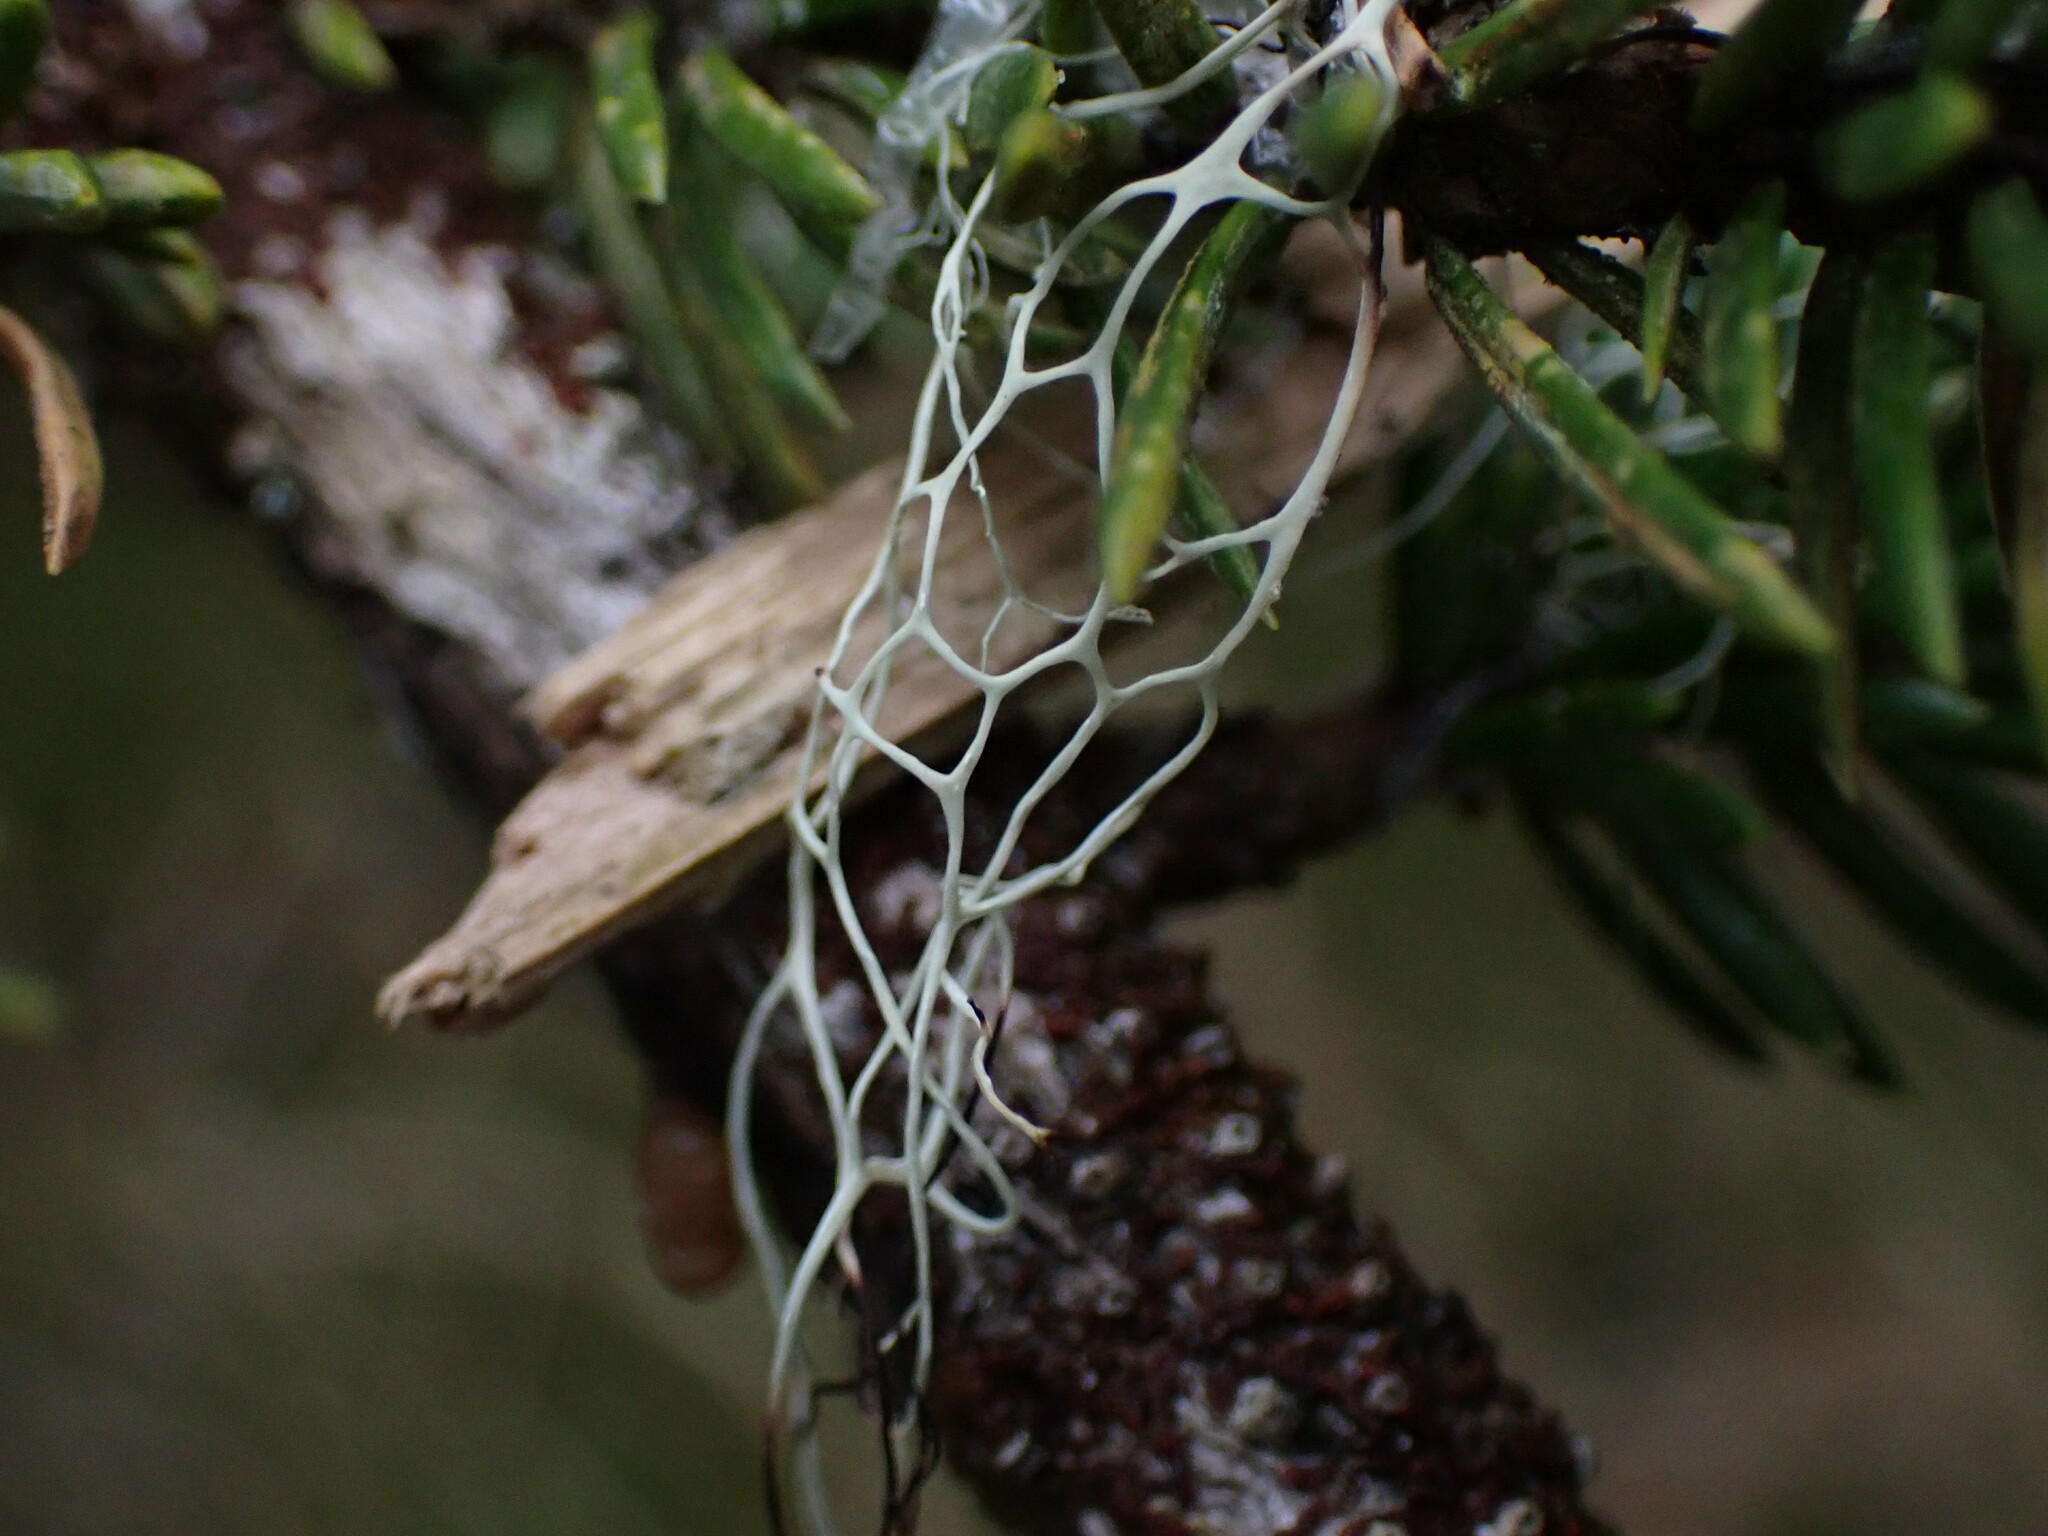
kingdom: Fungi
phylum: Ascomycota
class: Lecanoromycetes
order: Lecanorales
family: Ramalinaceae
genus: Ramalina
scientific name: Ramalina menziesii
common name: Lace lichen
